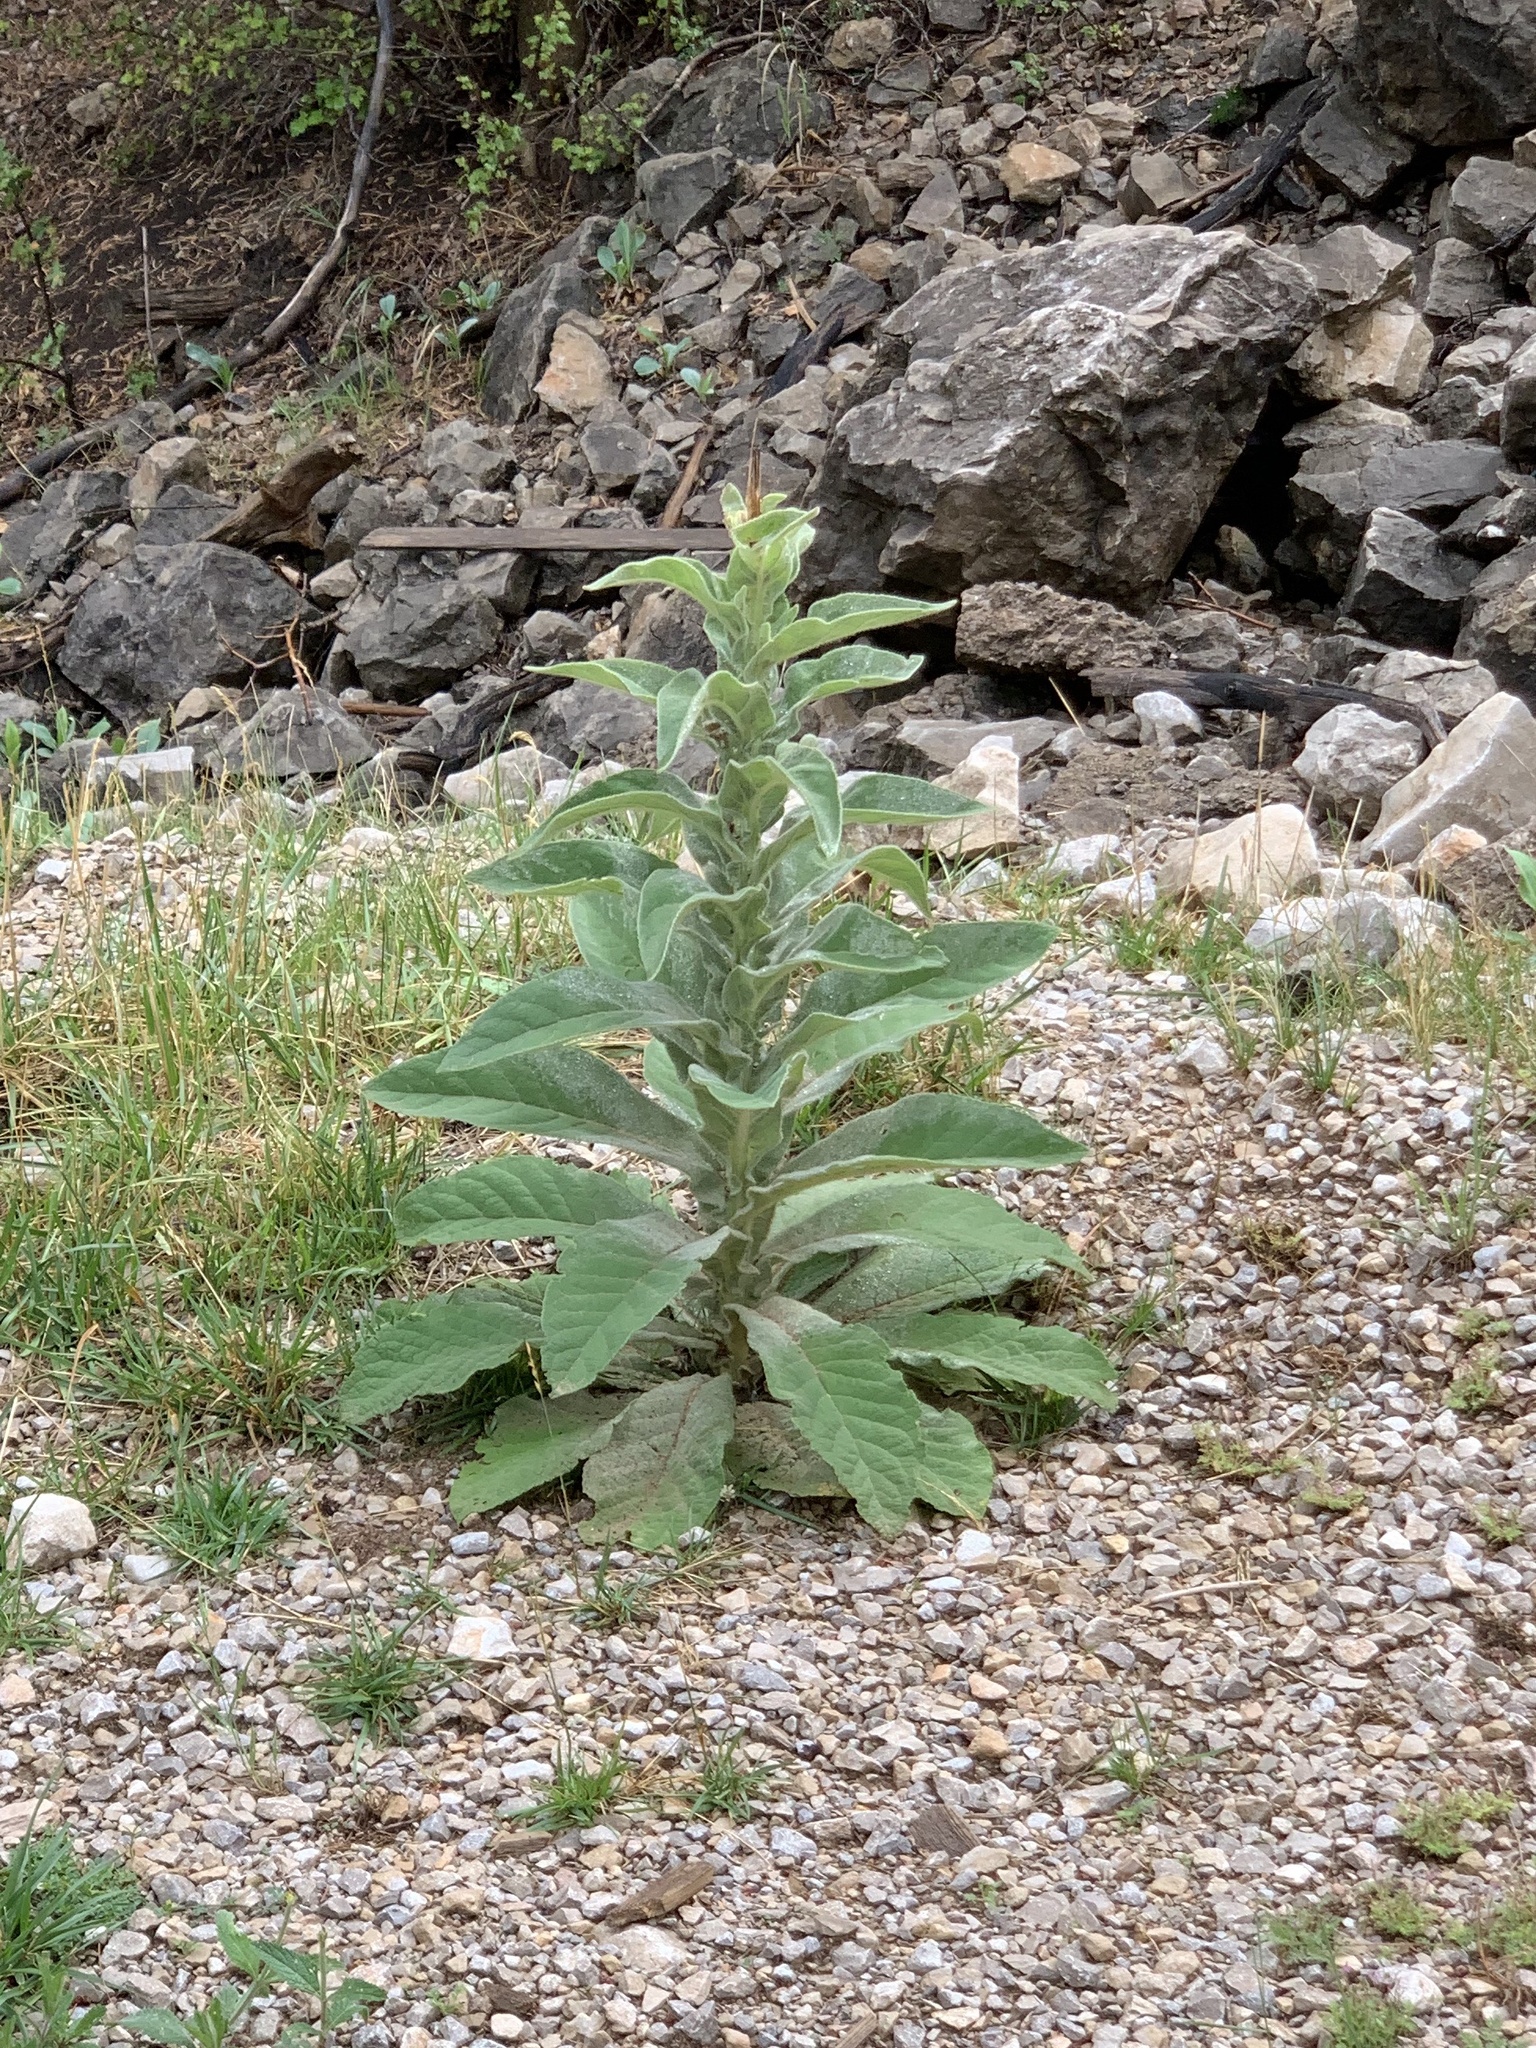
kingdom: Plantae
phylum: Tracheophyta
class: Magnoliopsida
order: Lamiales
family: Scrophulariaceae
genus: Verbascum
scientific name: Verbascum thapsus
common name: Common mullein
